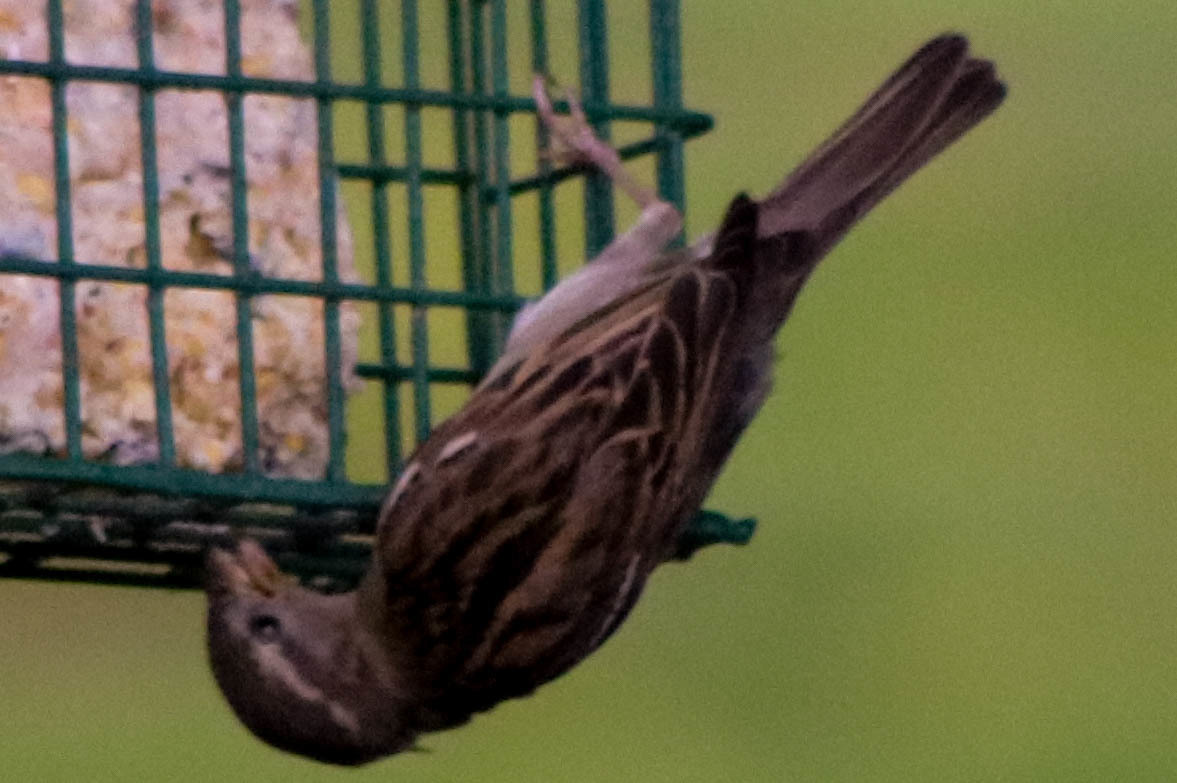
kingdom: Animalia
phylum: Chordata
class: Aves
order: Passeriformes
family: Passeridae
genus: Passer
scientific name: Passer domesticus
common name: House sparrow
